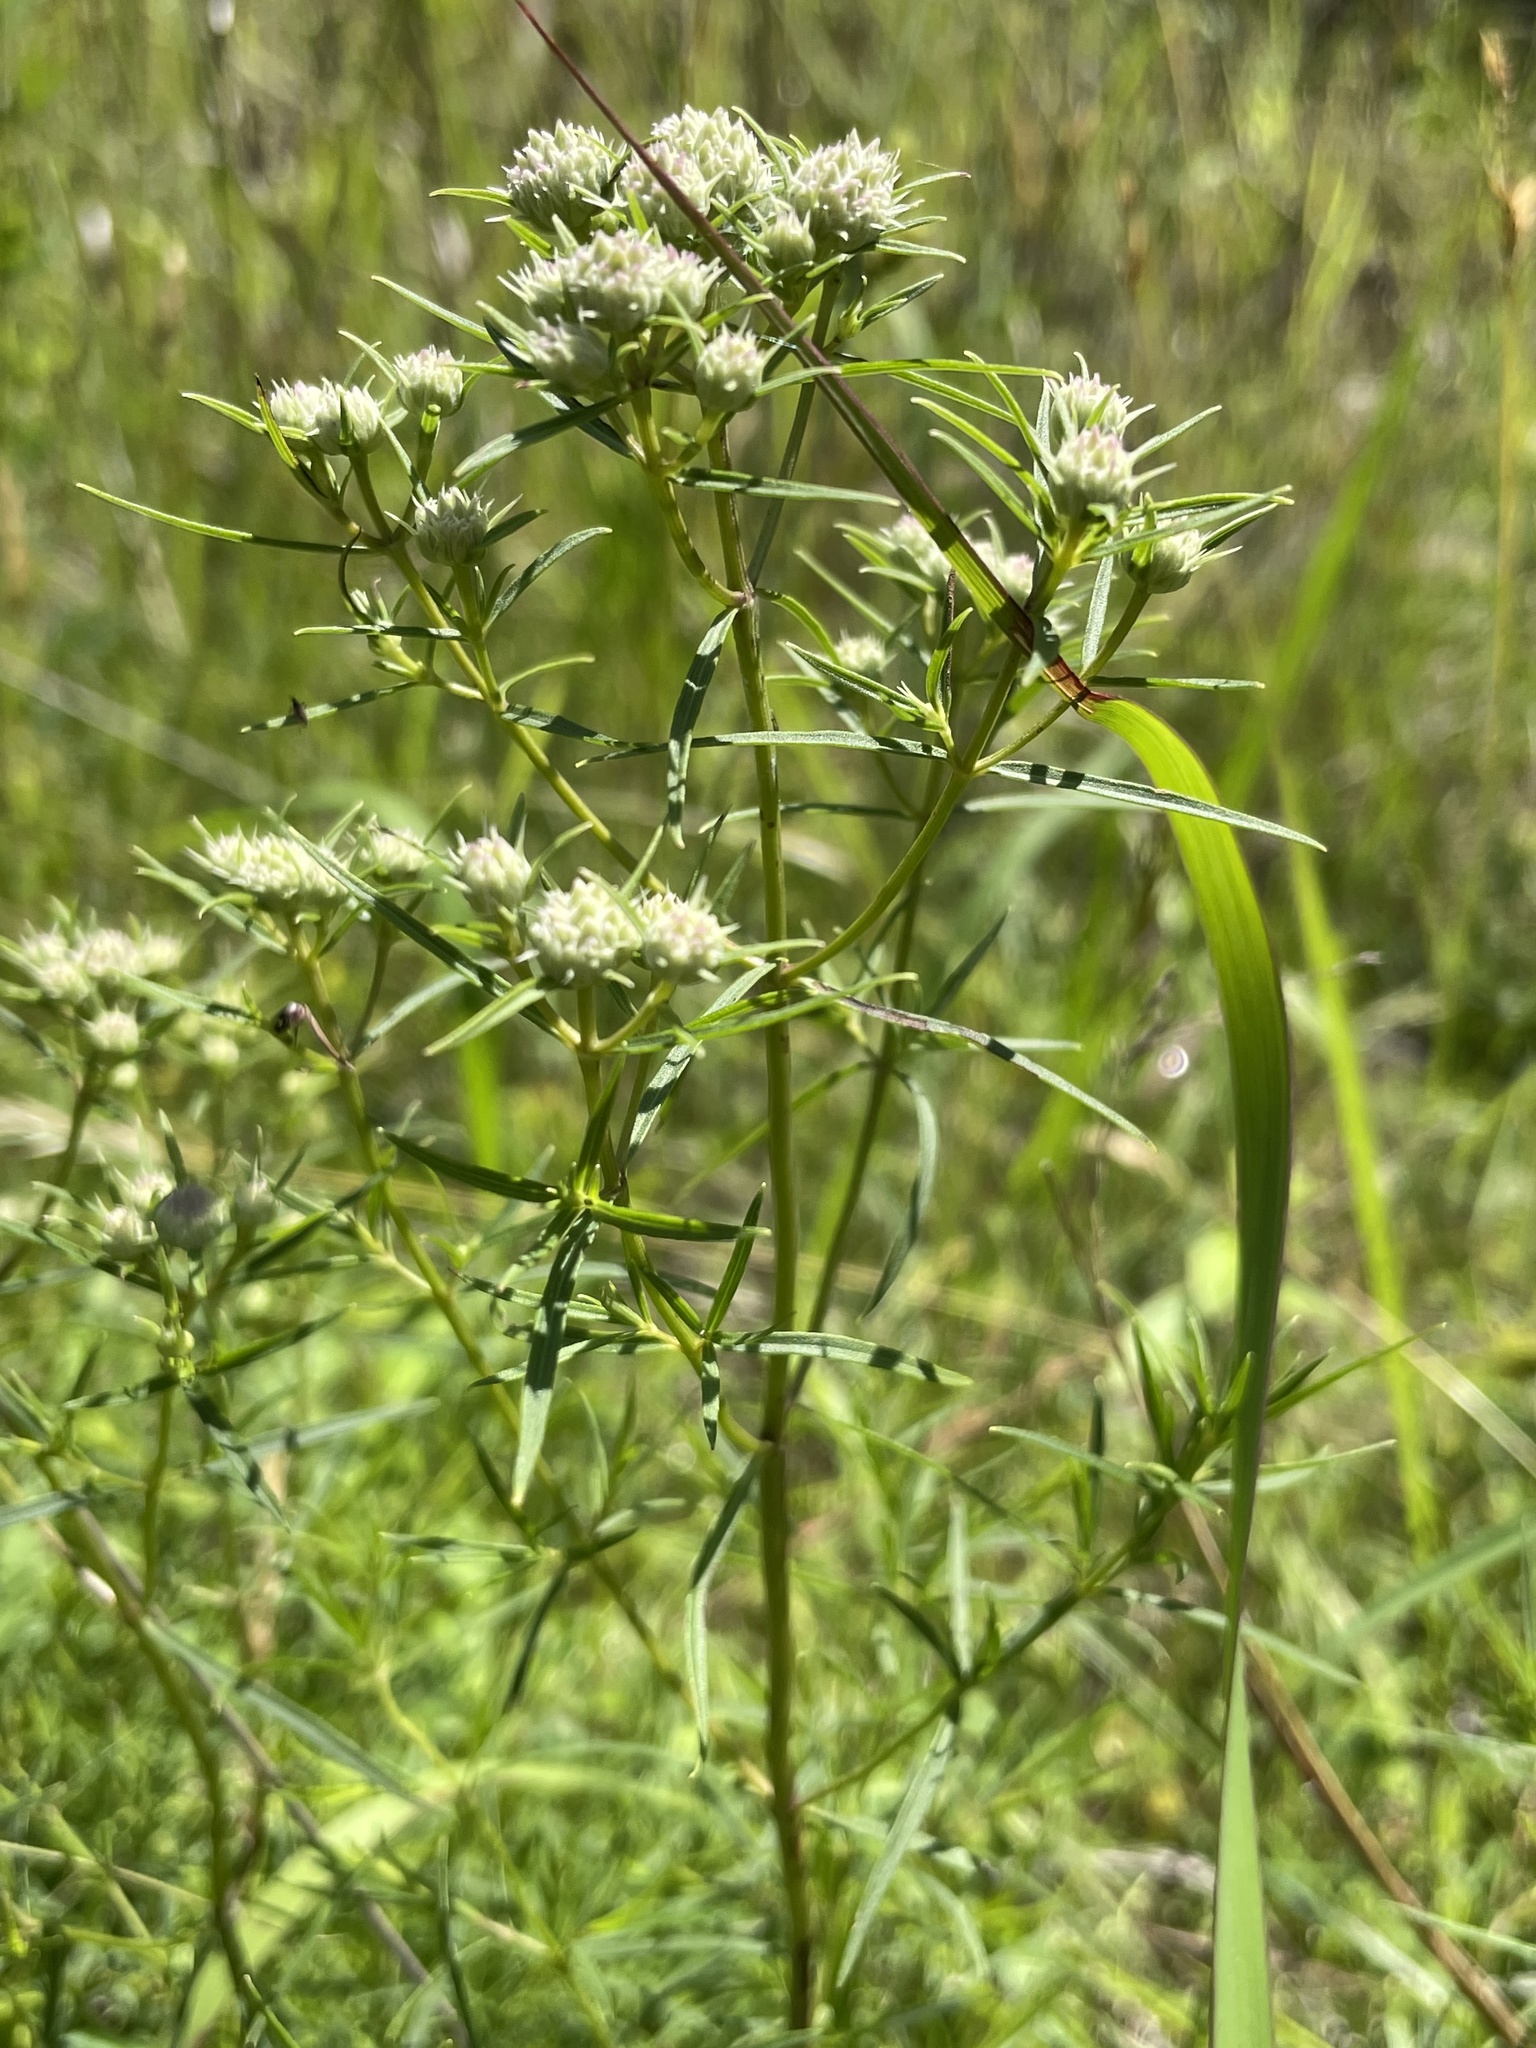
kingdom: Plantae
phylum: Tracheophyta
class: Magnoliopsida
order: Lamiales
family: Lamiaceae
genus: Pycnanthemum
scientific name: Pycnanthemum tenuifolium
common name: Narrow-leaf mountain-mint
